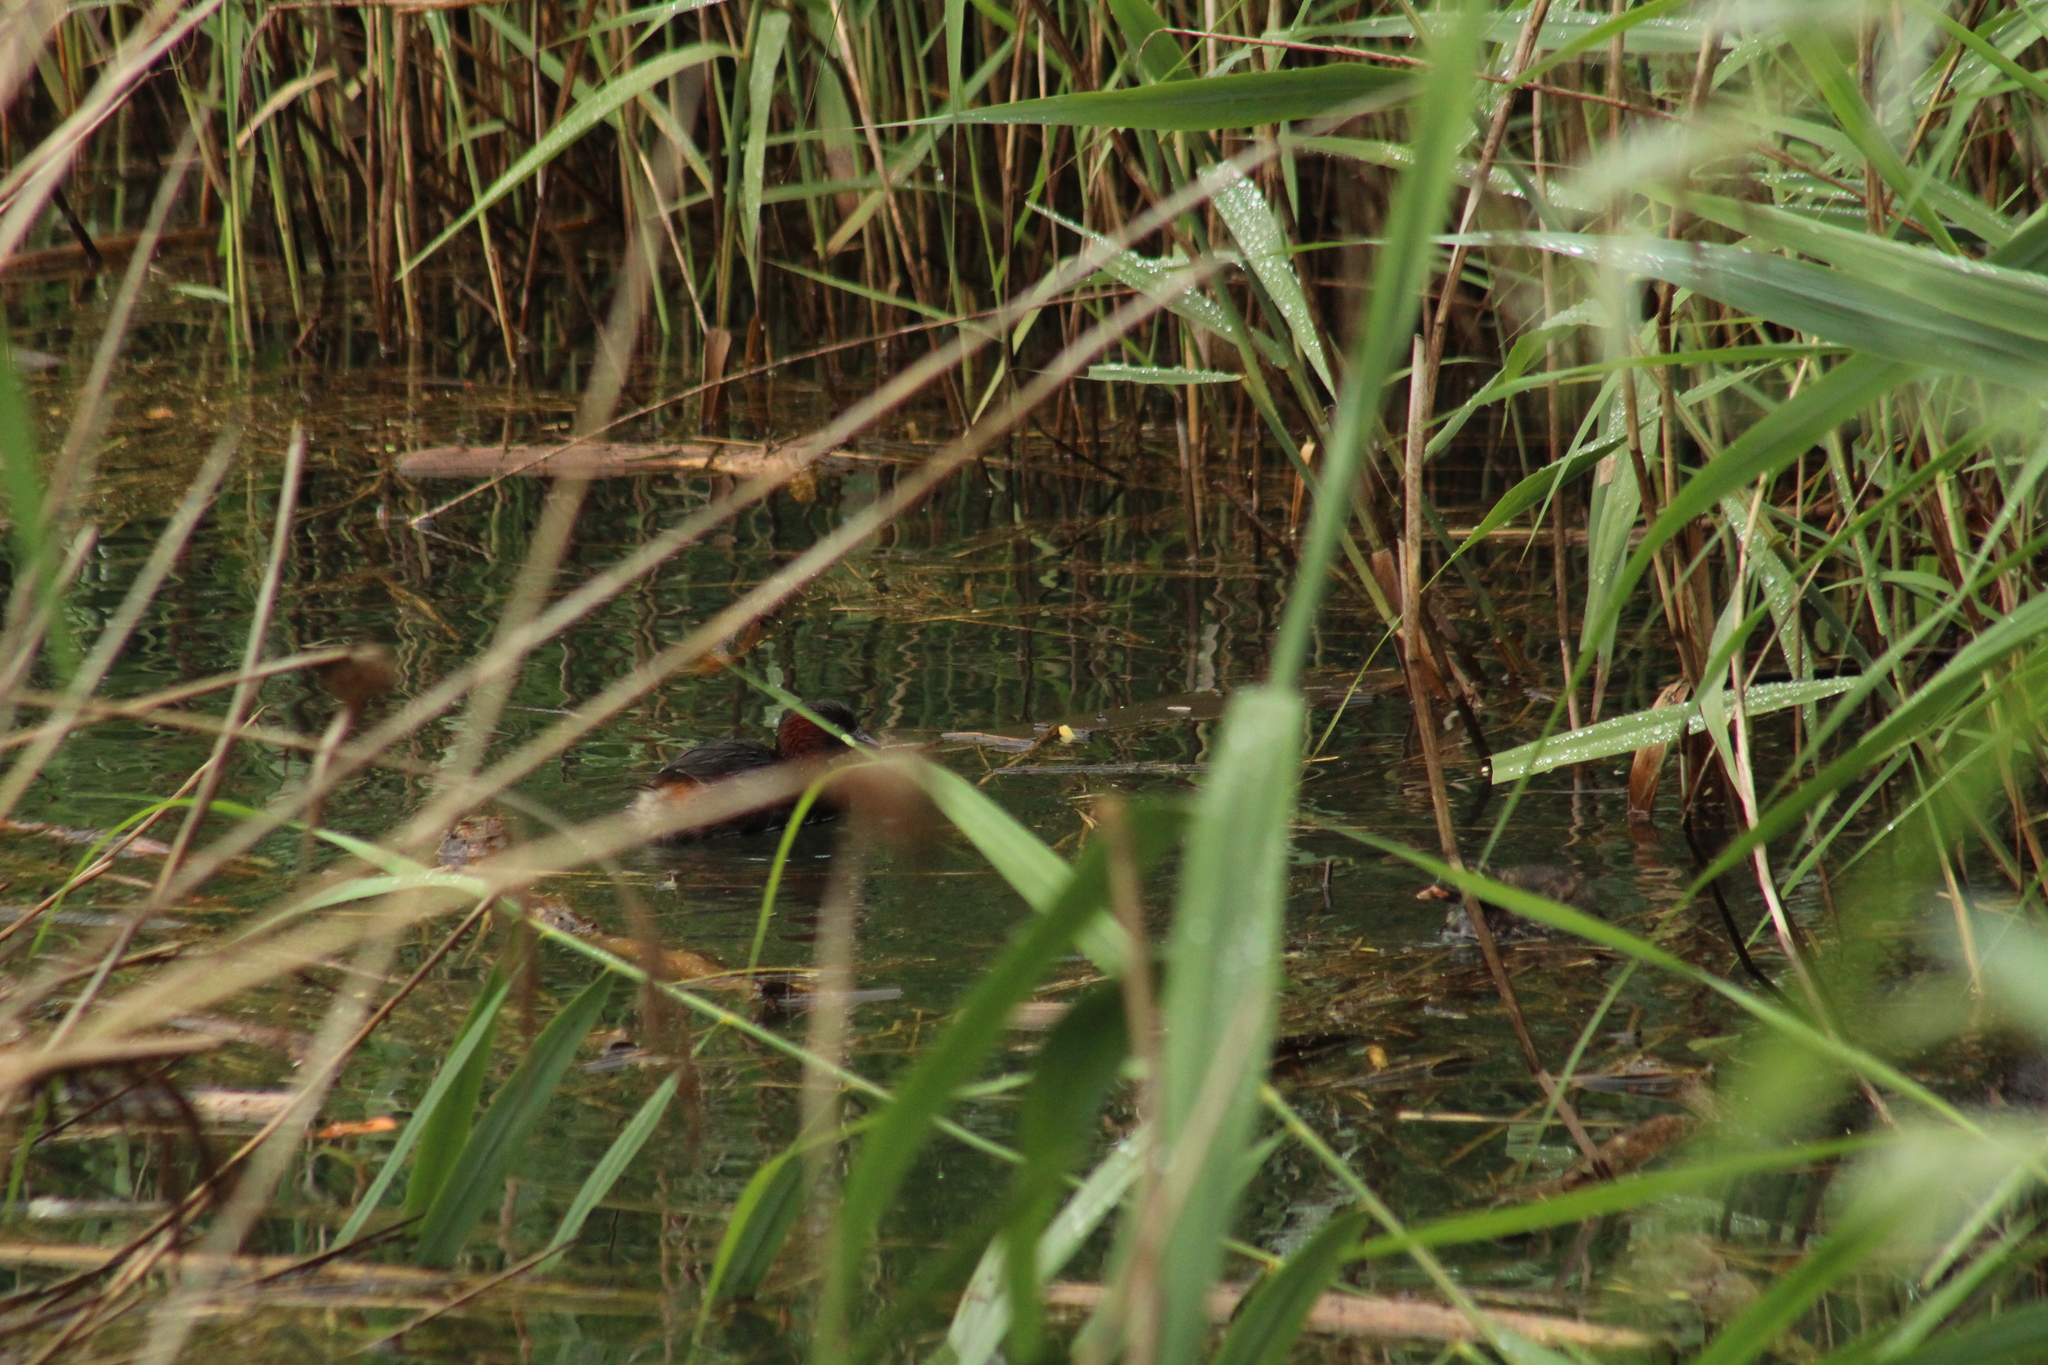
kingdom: Animalia
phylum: Chordata
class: Aves
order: Podicipediformes
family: Podicipedidae
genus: Tachybaptus
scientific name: Tachybaptus ruficollis
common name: Little grebe
